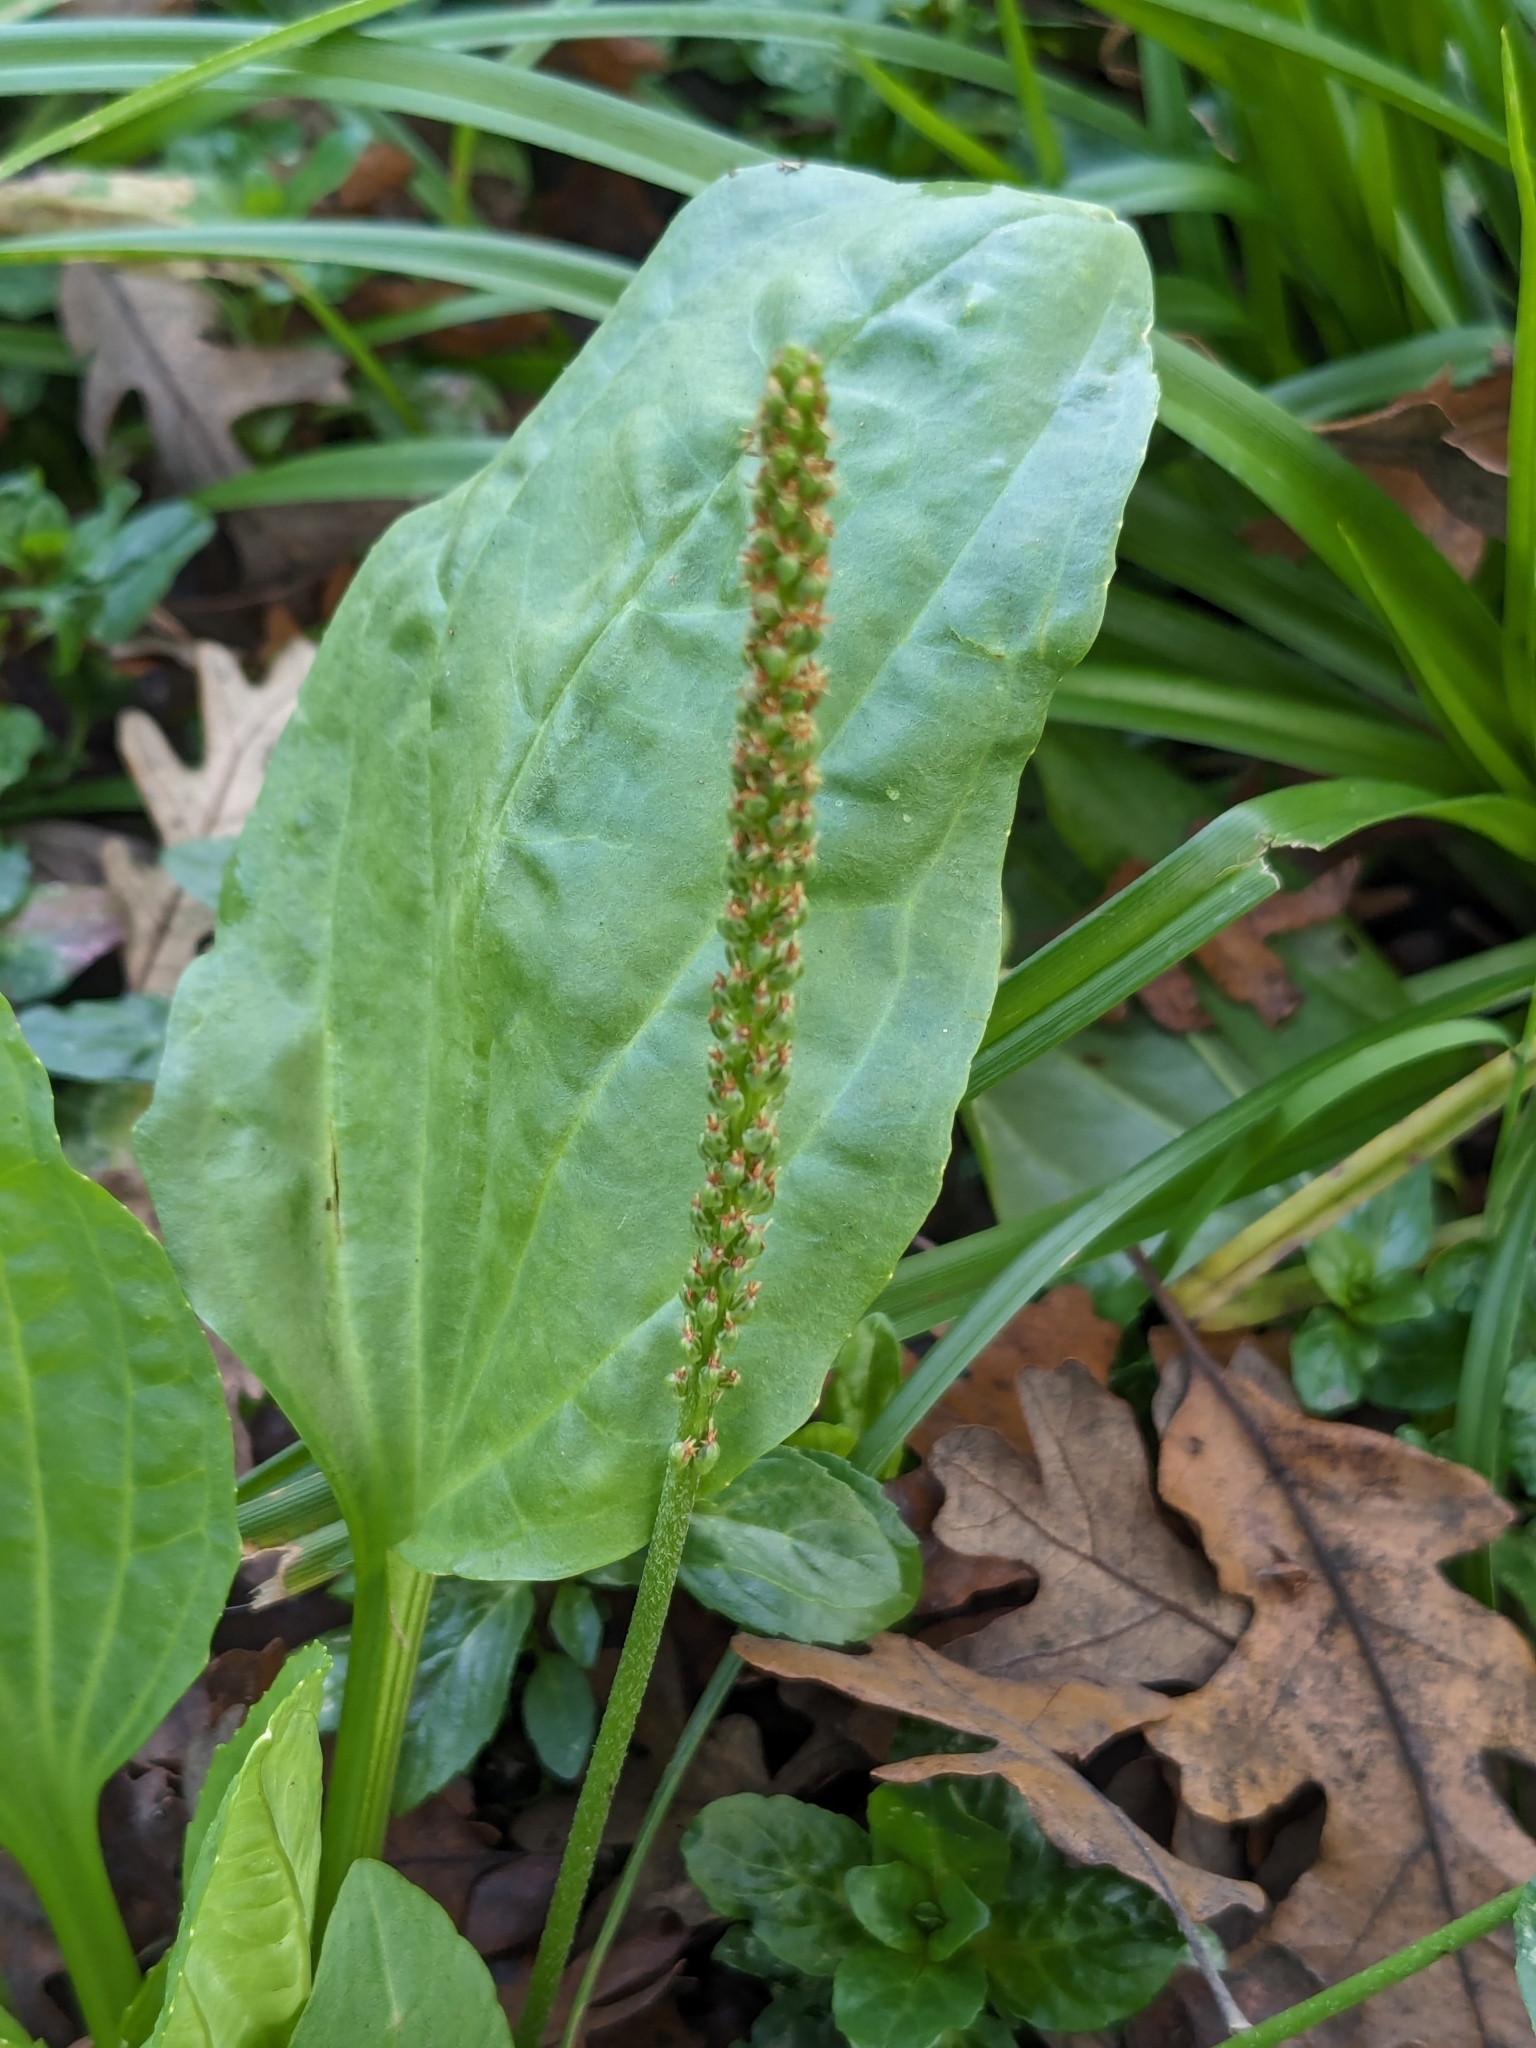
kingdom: Plantae
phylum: Tracheophyta
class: Magnoliopsida
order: Lamiales
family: Plantaginaceae
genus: Plantago
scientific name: Plantago major
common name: Common plantain
